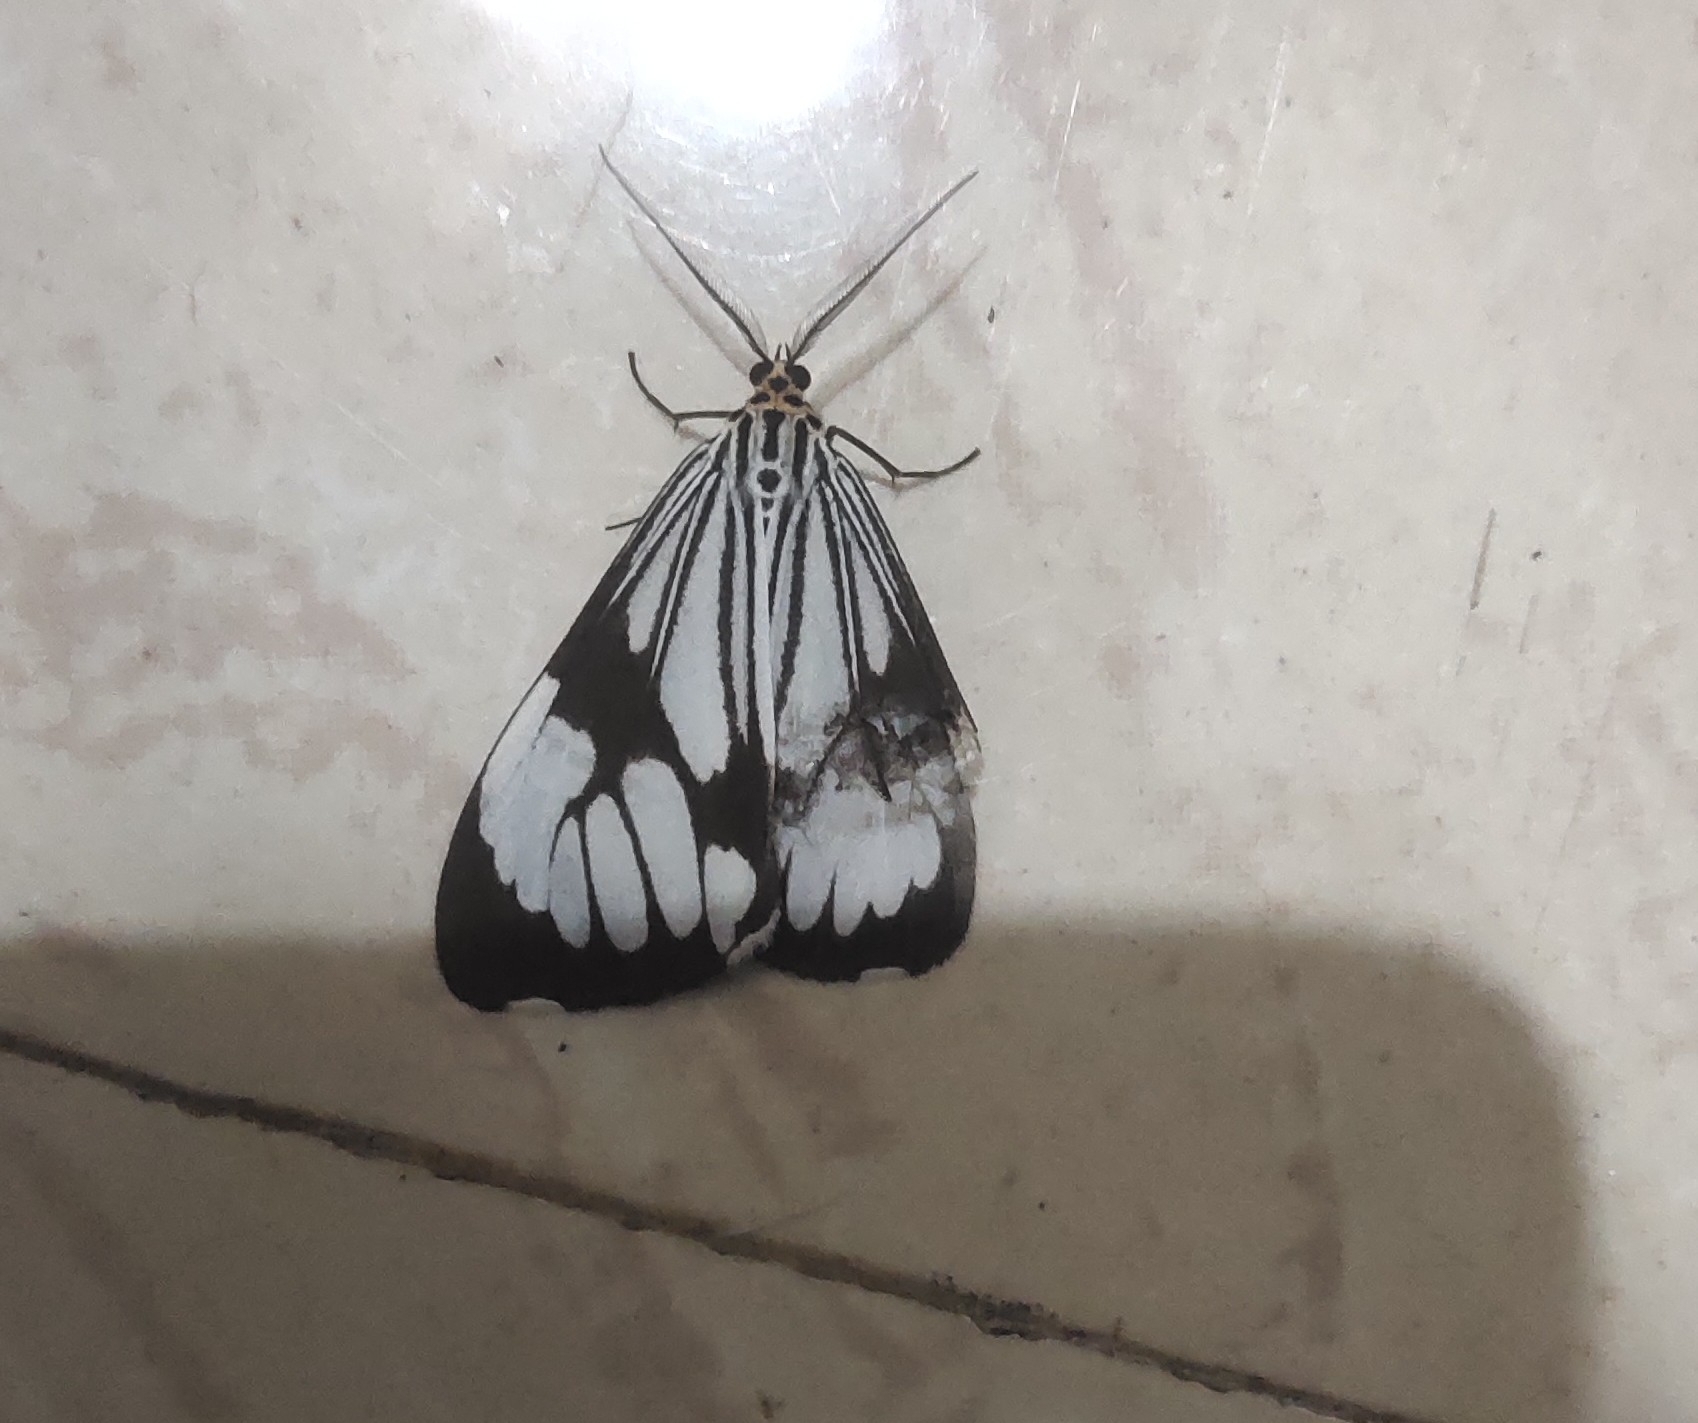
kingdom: Animalia
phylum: Arthropoda
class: Insecta
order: Lepidoptera
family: Erebidae
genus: Nyctemera
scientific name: Nyctemera coleta
